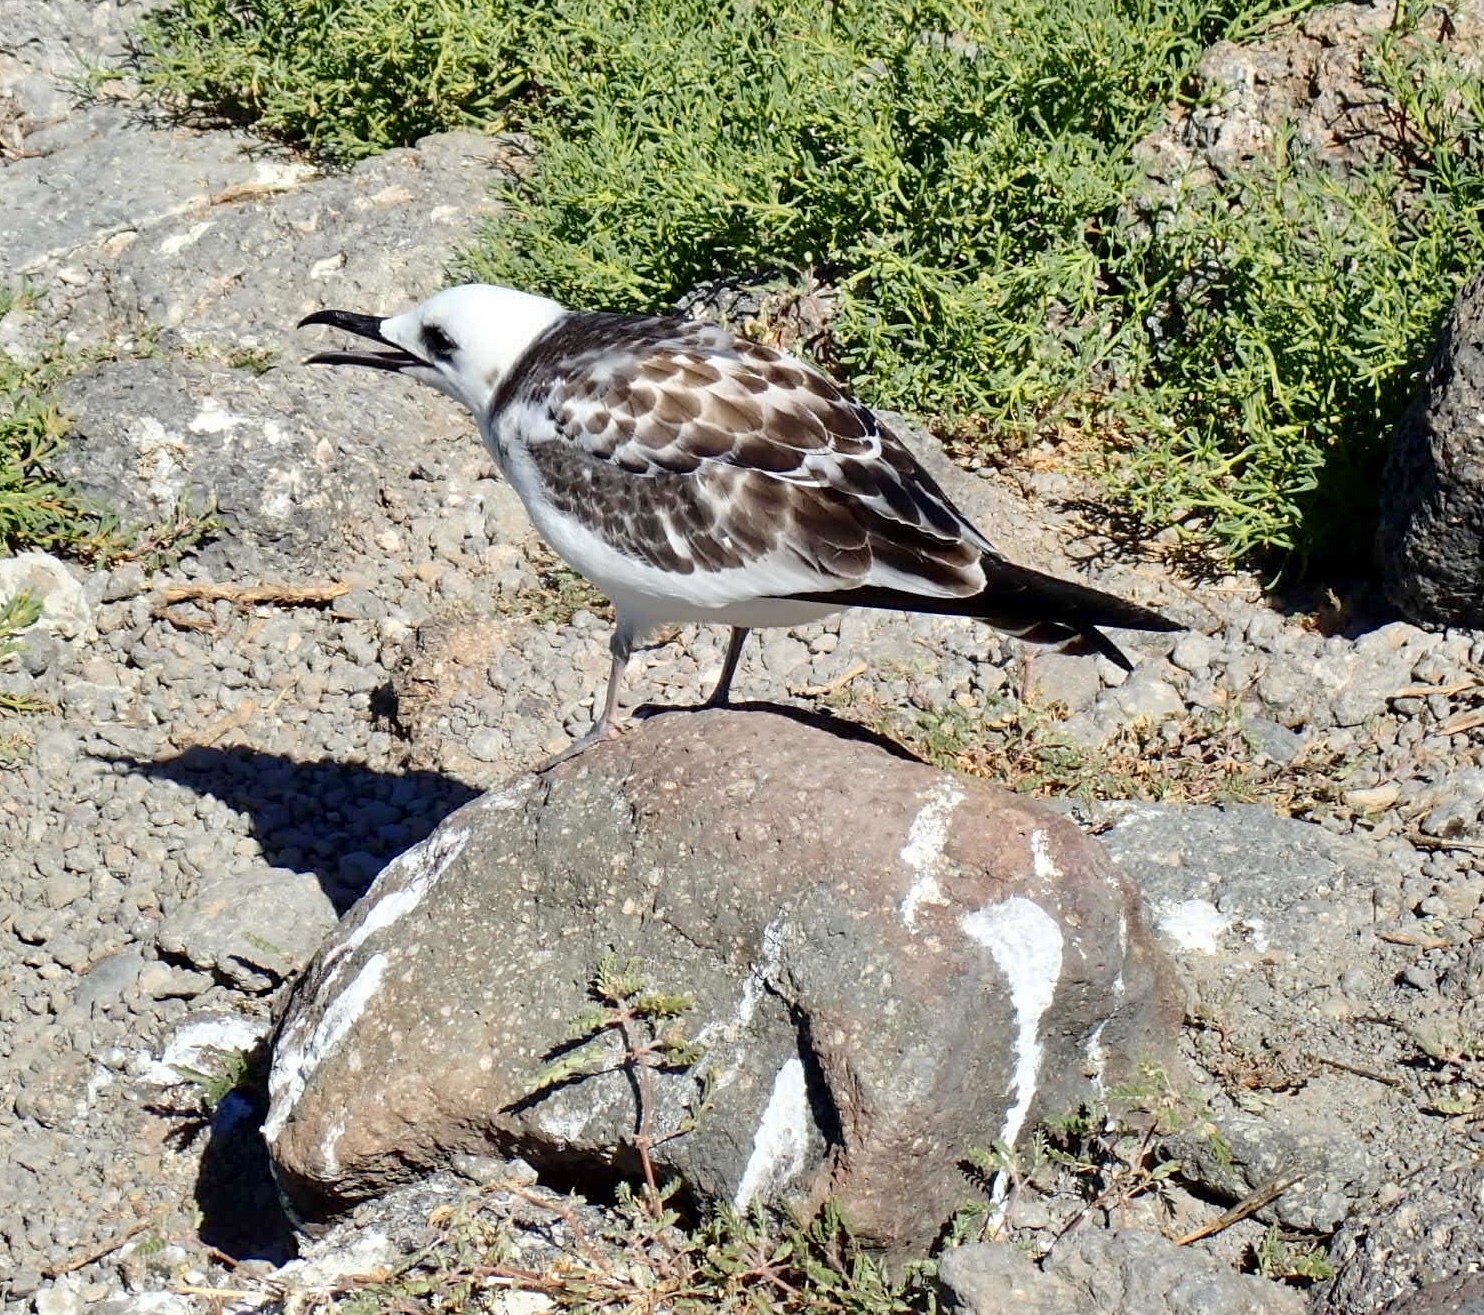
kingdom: Animalia
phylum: Chordata
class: Aves
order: Charadriiformes
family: Laridae
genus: Creagrus
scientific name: Creagrus furcatus
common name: Swallow-tailed gull
